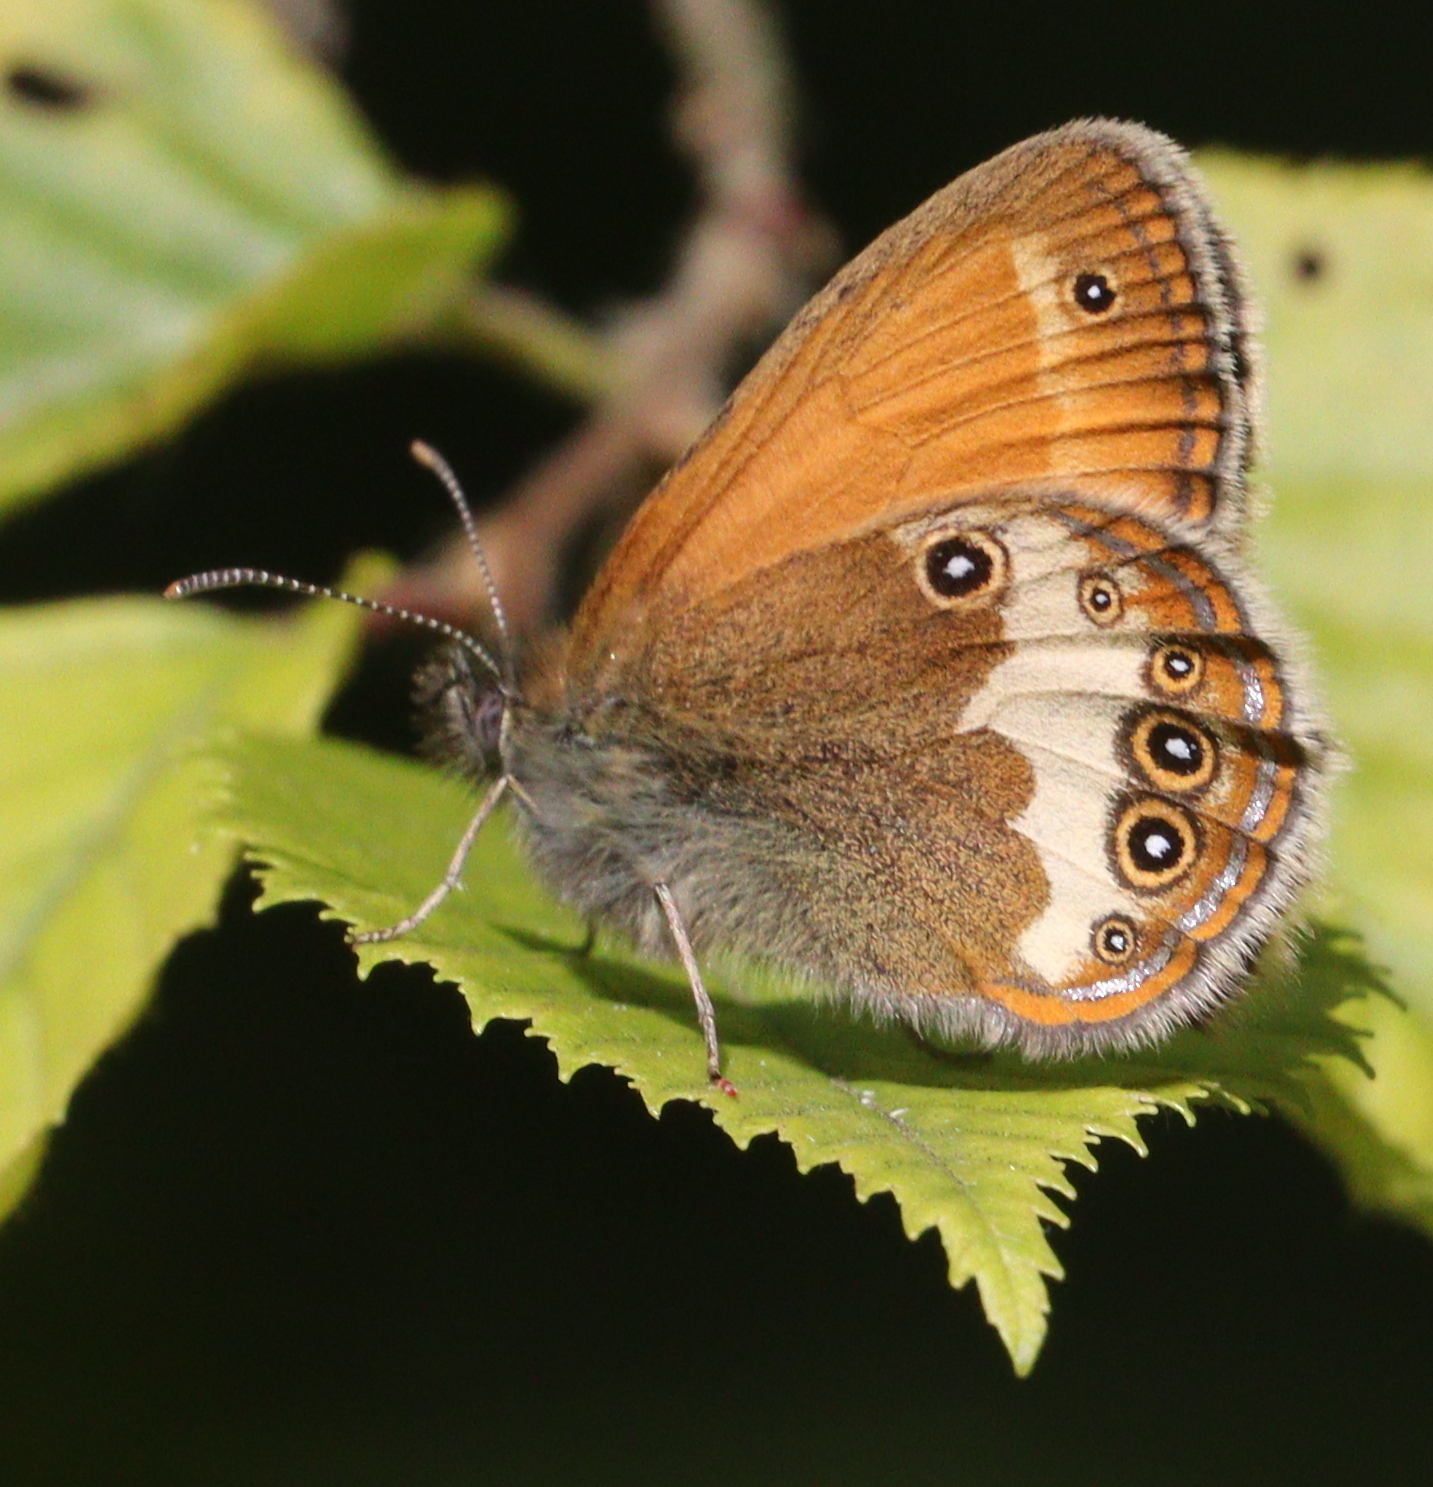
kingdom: Animalia
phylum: Arthropoda
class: Insecta
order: Lepidoptera
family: Nymphalidae
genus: Coenonympha
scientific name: Coenonympha arcania
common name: Pearly heath
